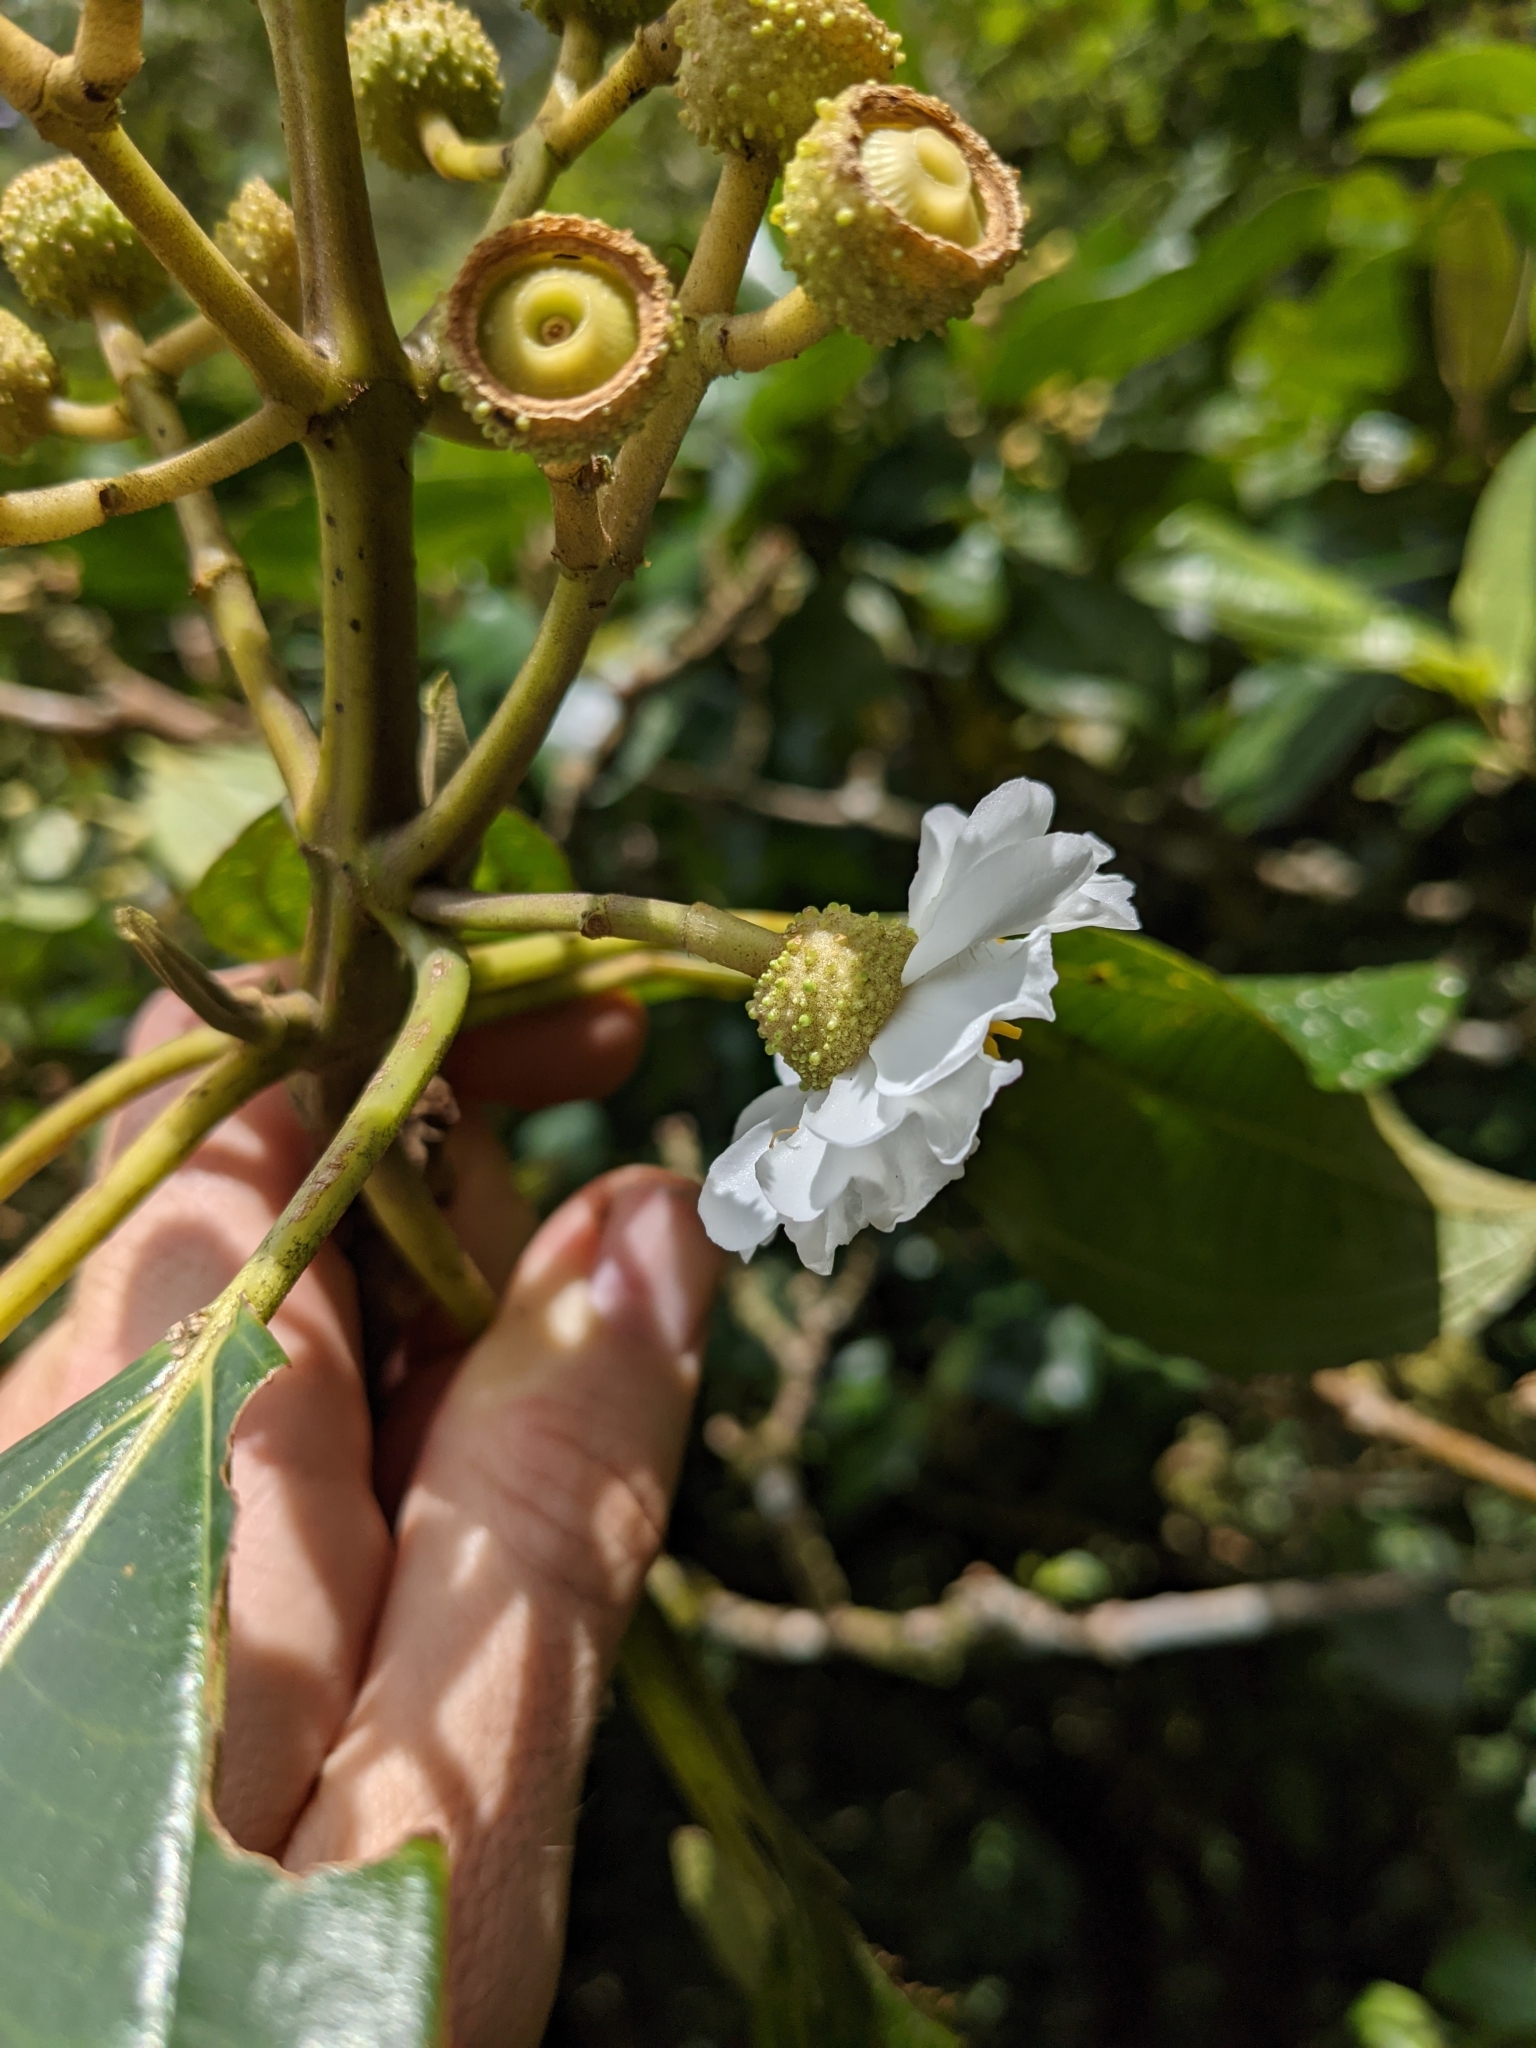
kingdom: Plantae
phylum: Tracheophyta
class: Magnoliopsida
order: Myrtales
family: Melastomataceae
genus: Miconia
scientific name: Miconia conomacrantha
